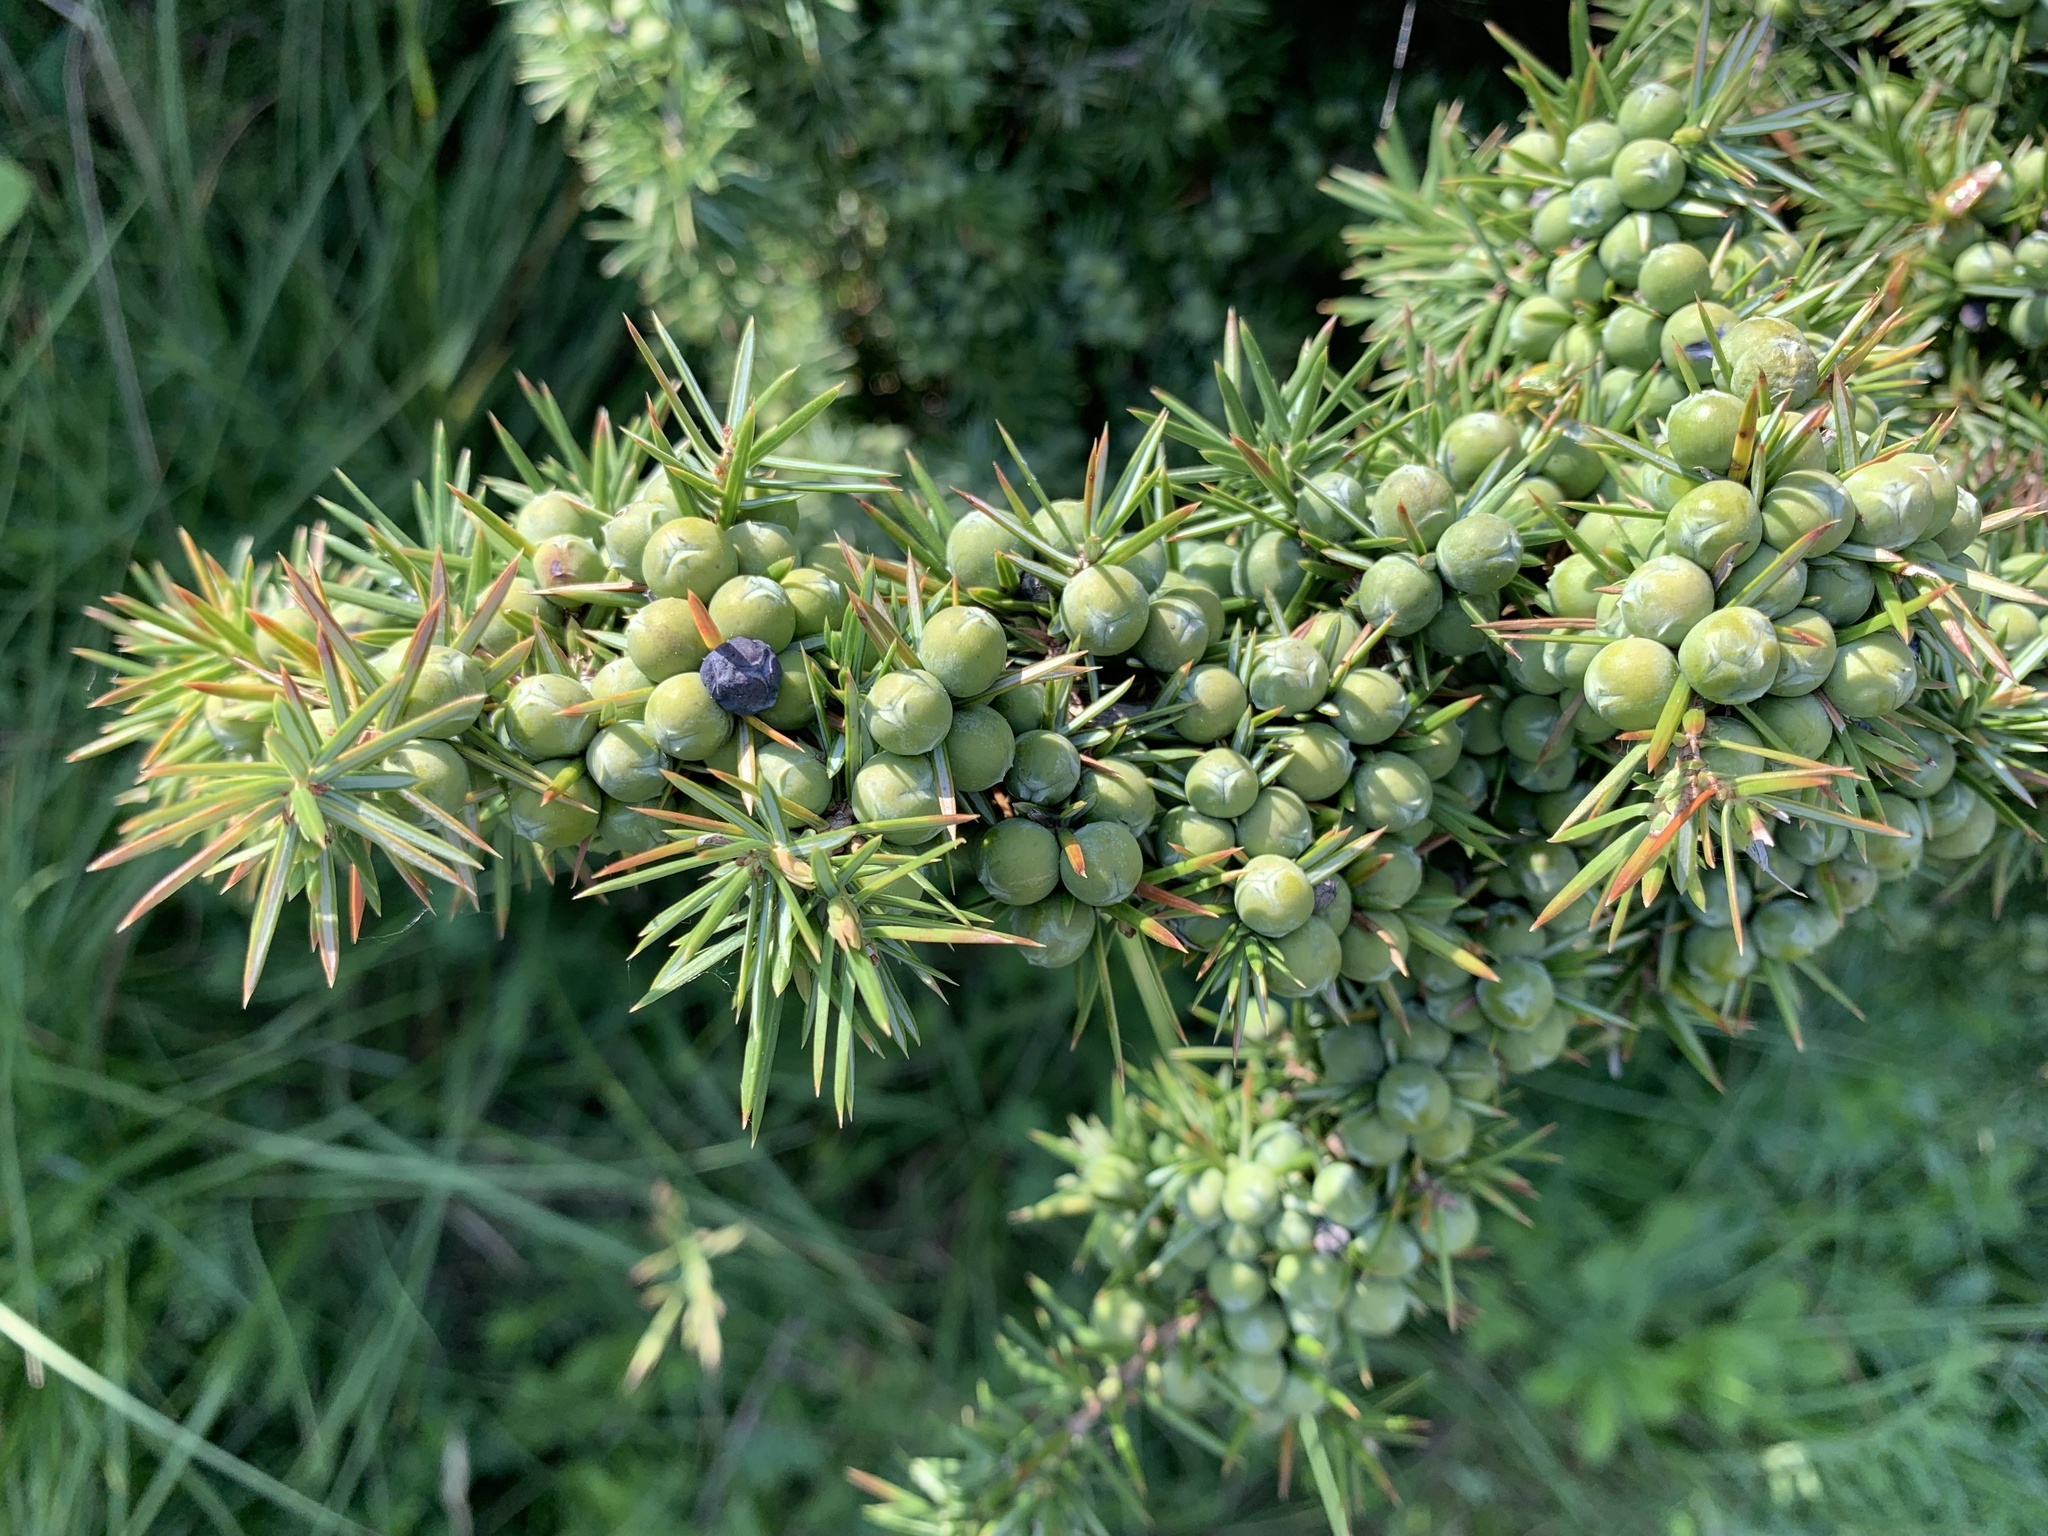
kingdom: Plantae
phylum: Tracheophyta
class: Pinopsida
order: Pinales
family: Cupressaceae
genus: Juniperus
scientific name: Juniperus communis
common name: Common juniper
